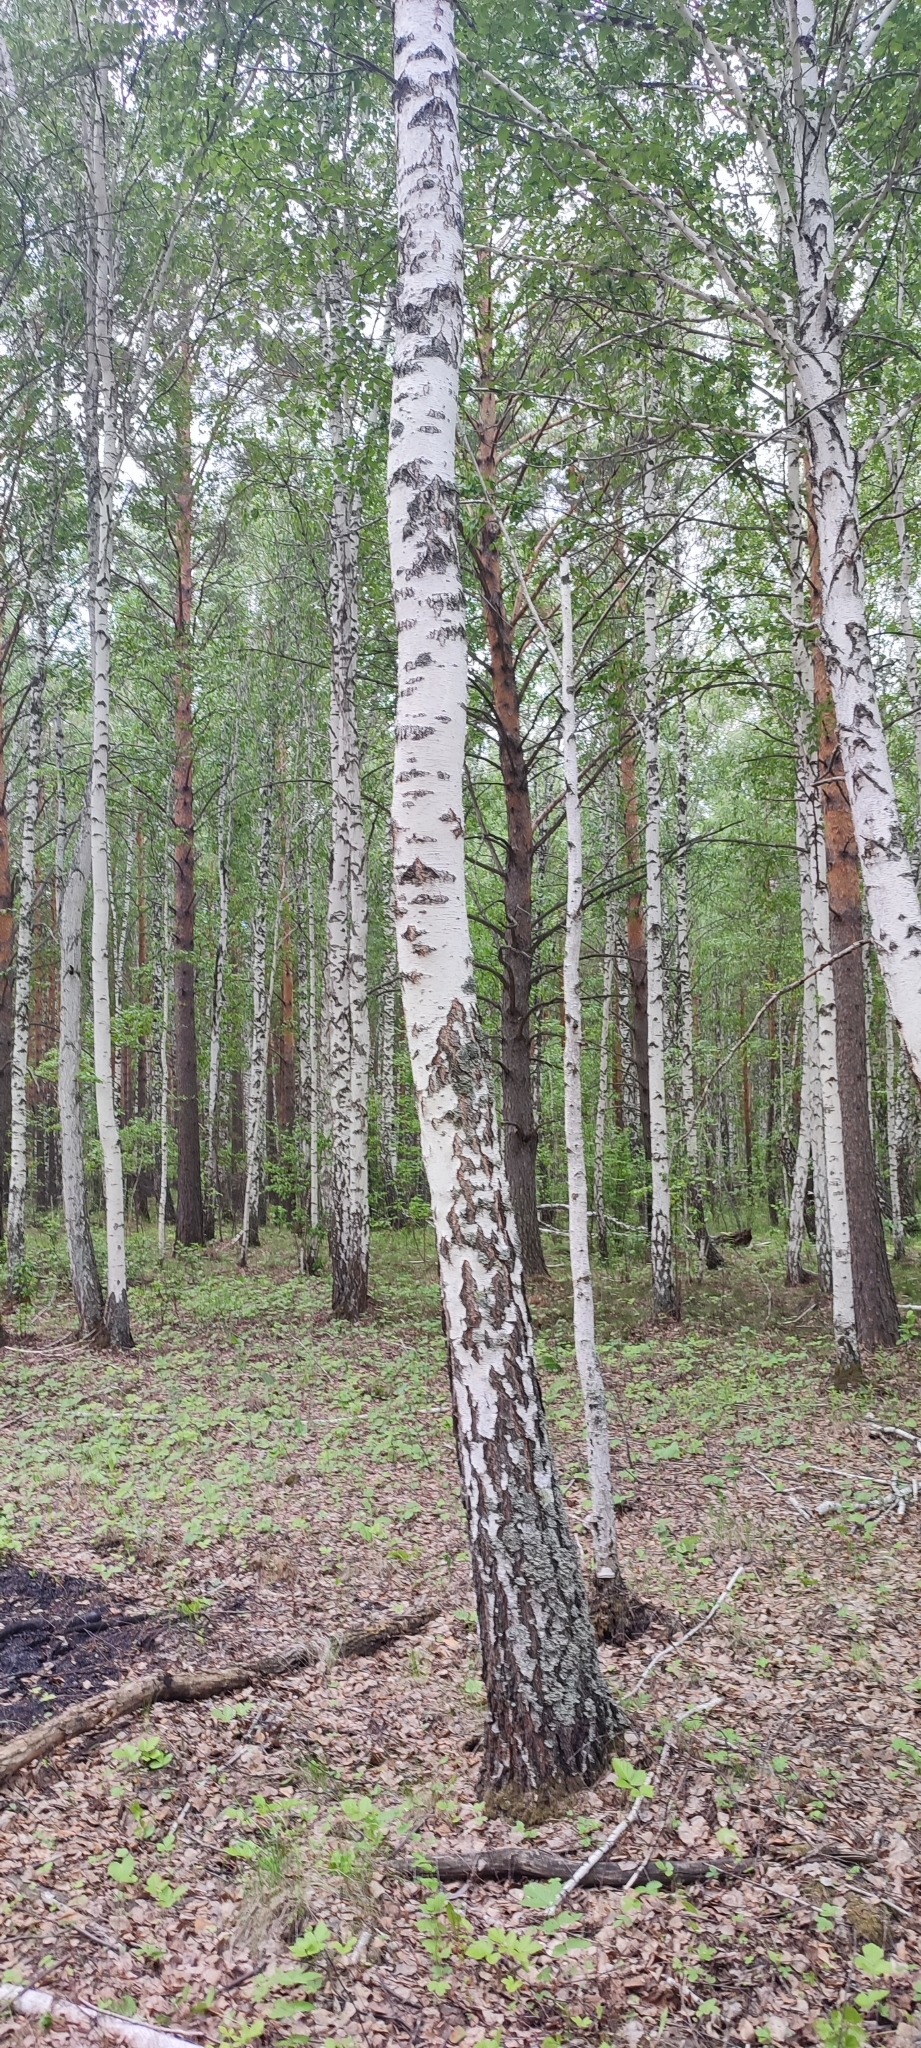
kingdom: Plantae
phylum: Tracheophyta
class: Magnoliopsida
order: Fagales
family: Betulaceae
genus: Betula
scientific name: Betula pendula
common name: Silver birch
